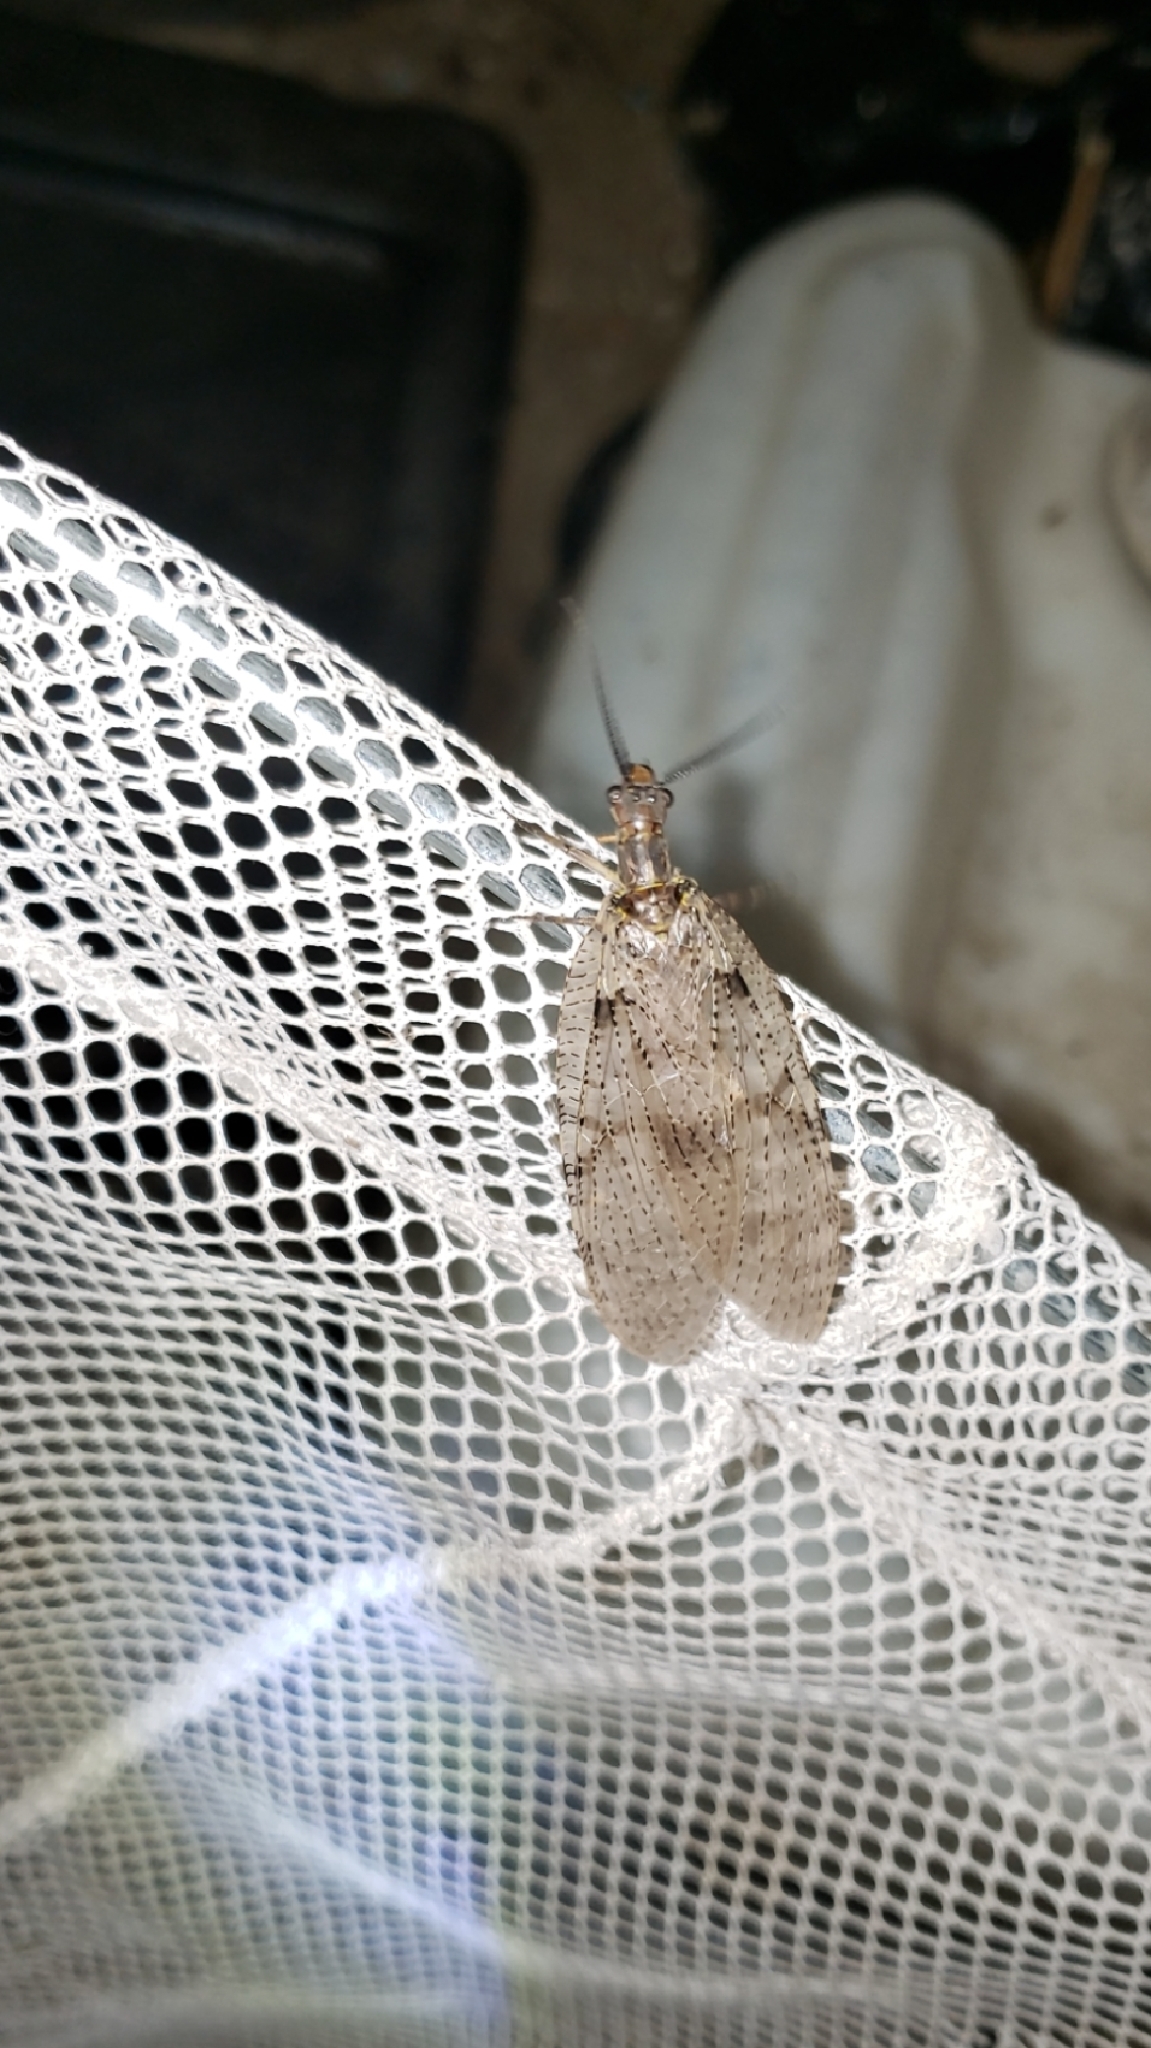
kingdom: Animalia
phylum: Arthropoda
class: Insecta
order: Megaloptera
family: Corydalidae
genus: Chauliodes
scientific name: Chauliodes pectinicornis
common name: Summer fishfly
